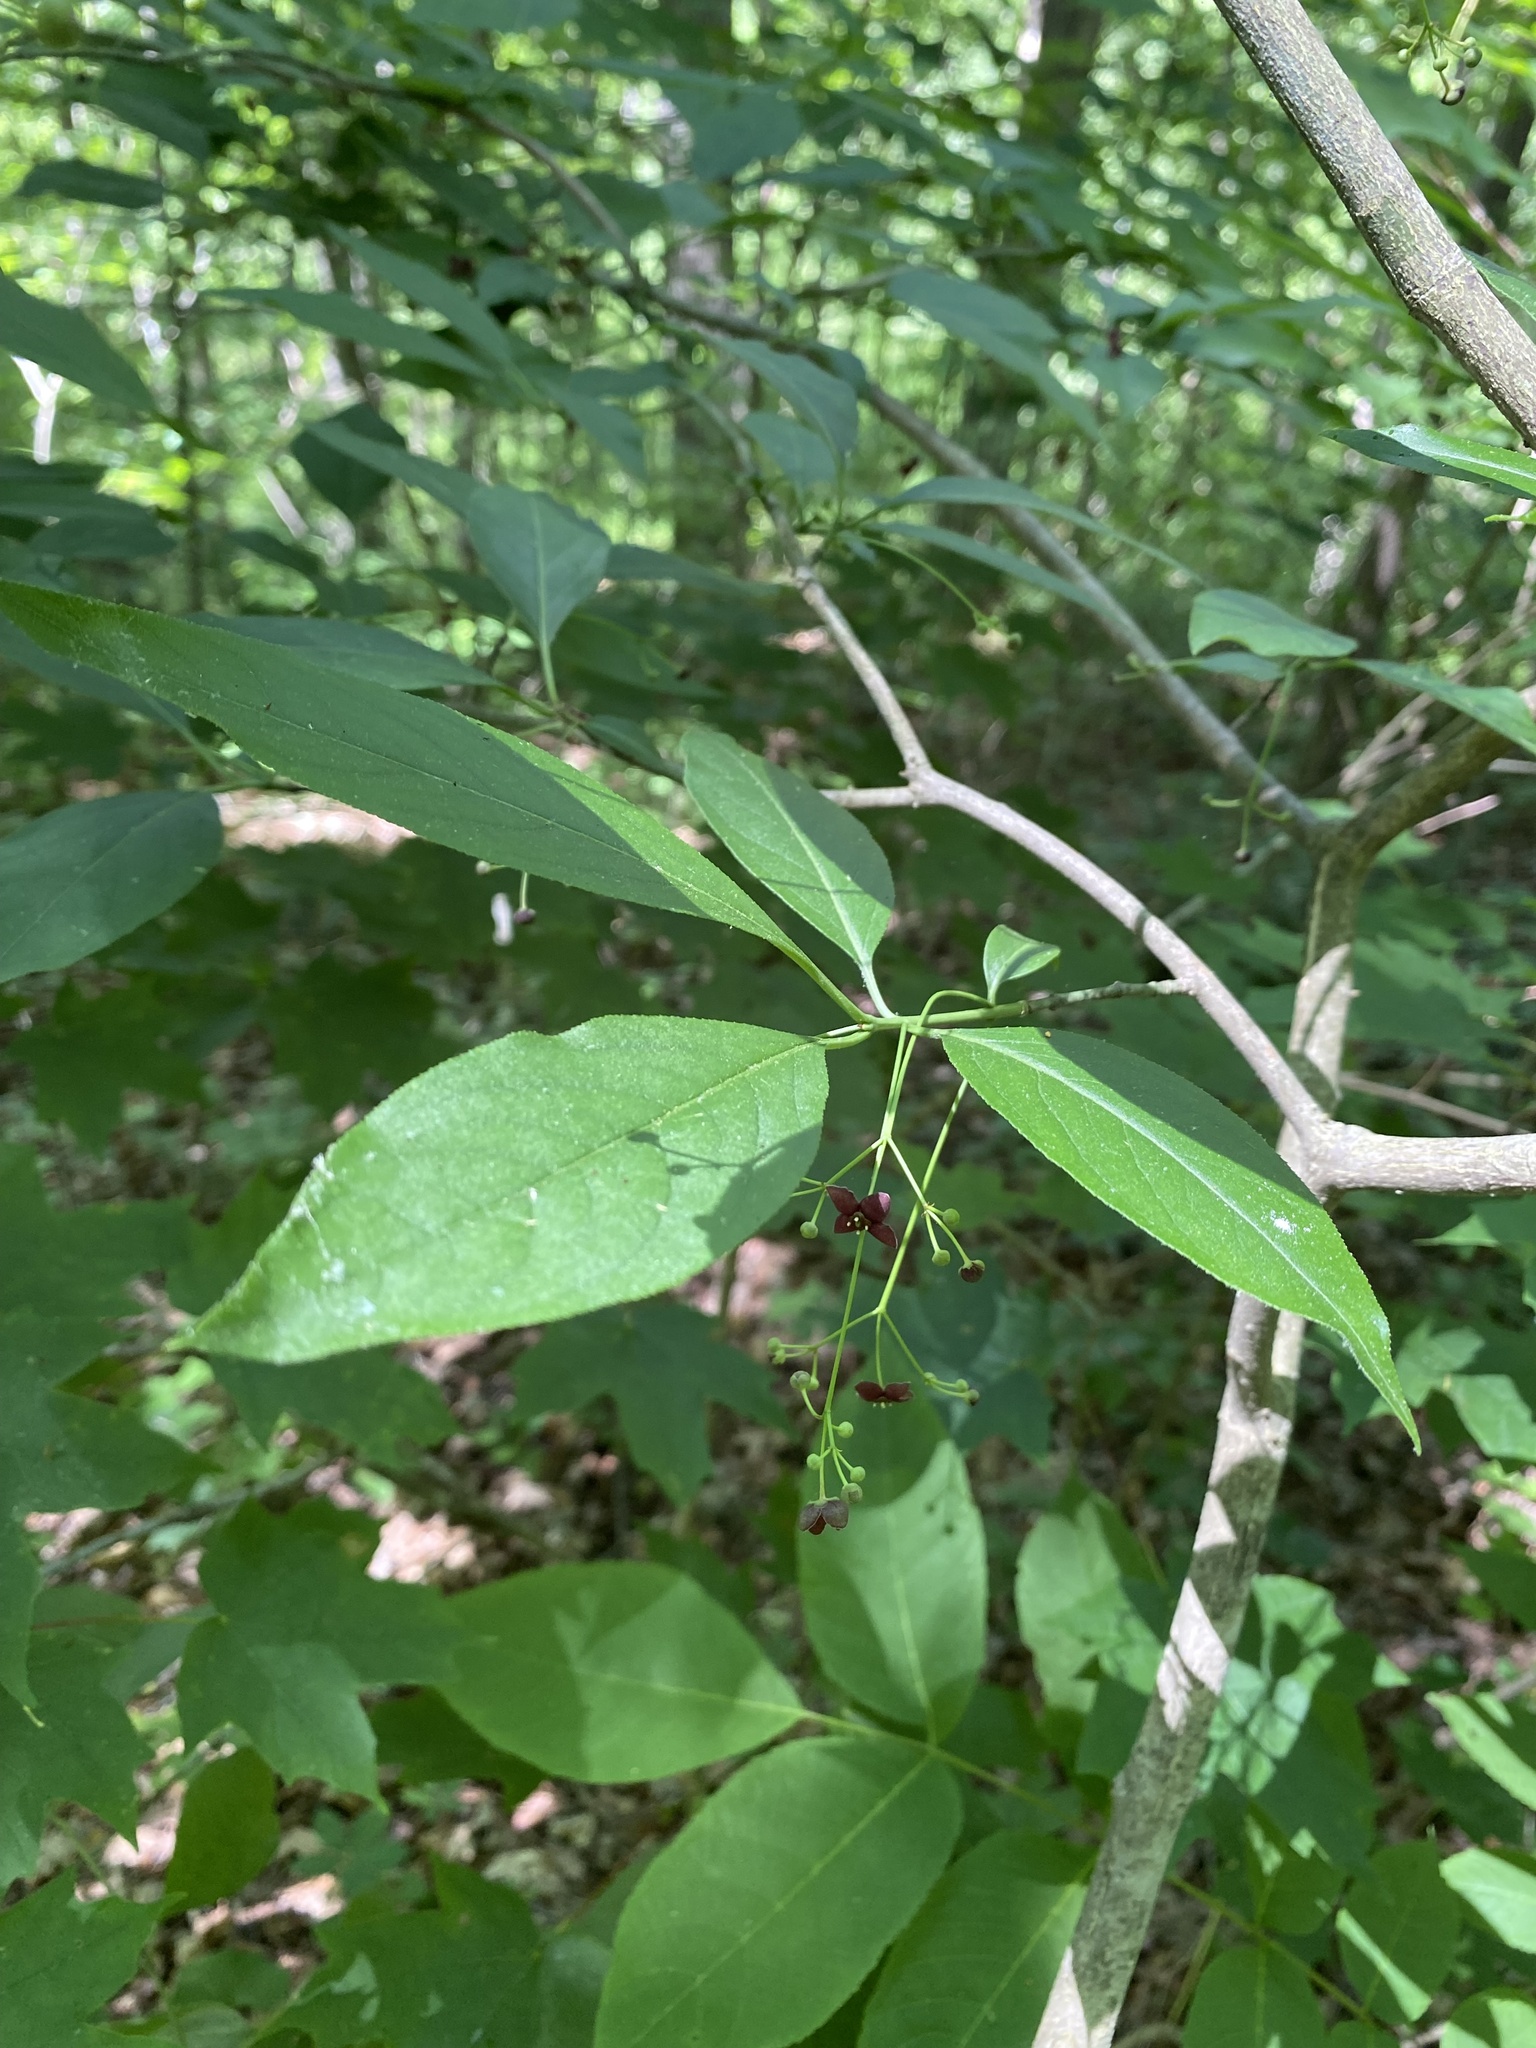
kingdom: Plantae
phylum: Tracheophyta
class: Magnoliopsida
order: Celastrales
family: Celastraceae
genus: Euonymus
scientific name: Euonymus atropurpureus
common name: Eastern wahoo
